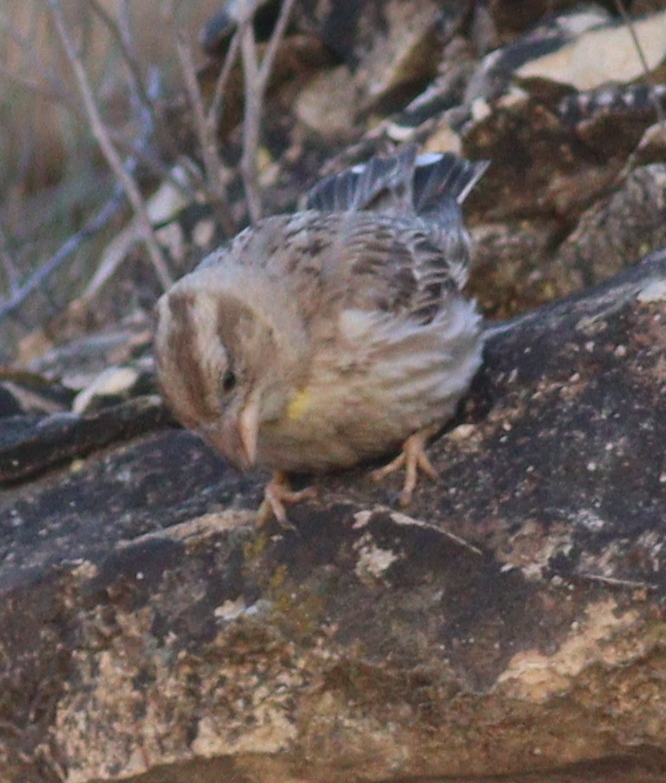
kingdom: Animalia
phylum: Chordata
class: Aves
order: Passeriformes
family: Passeridae
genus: Petronia
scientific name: Petronia petronia
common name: Rock sparrow
